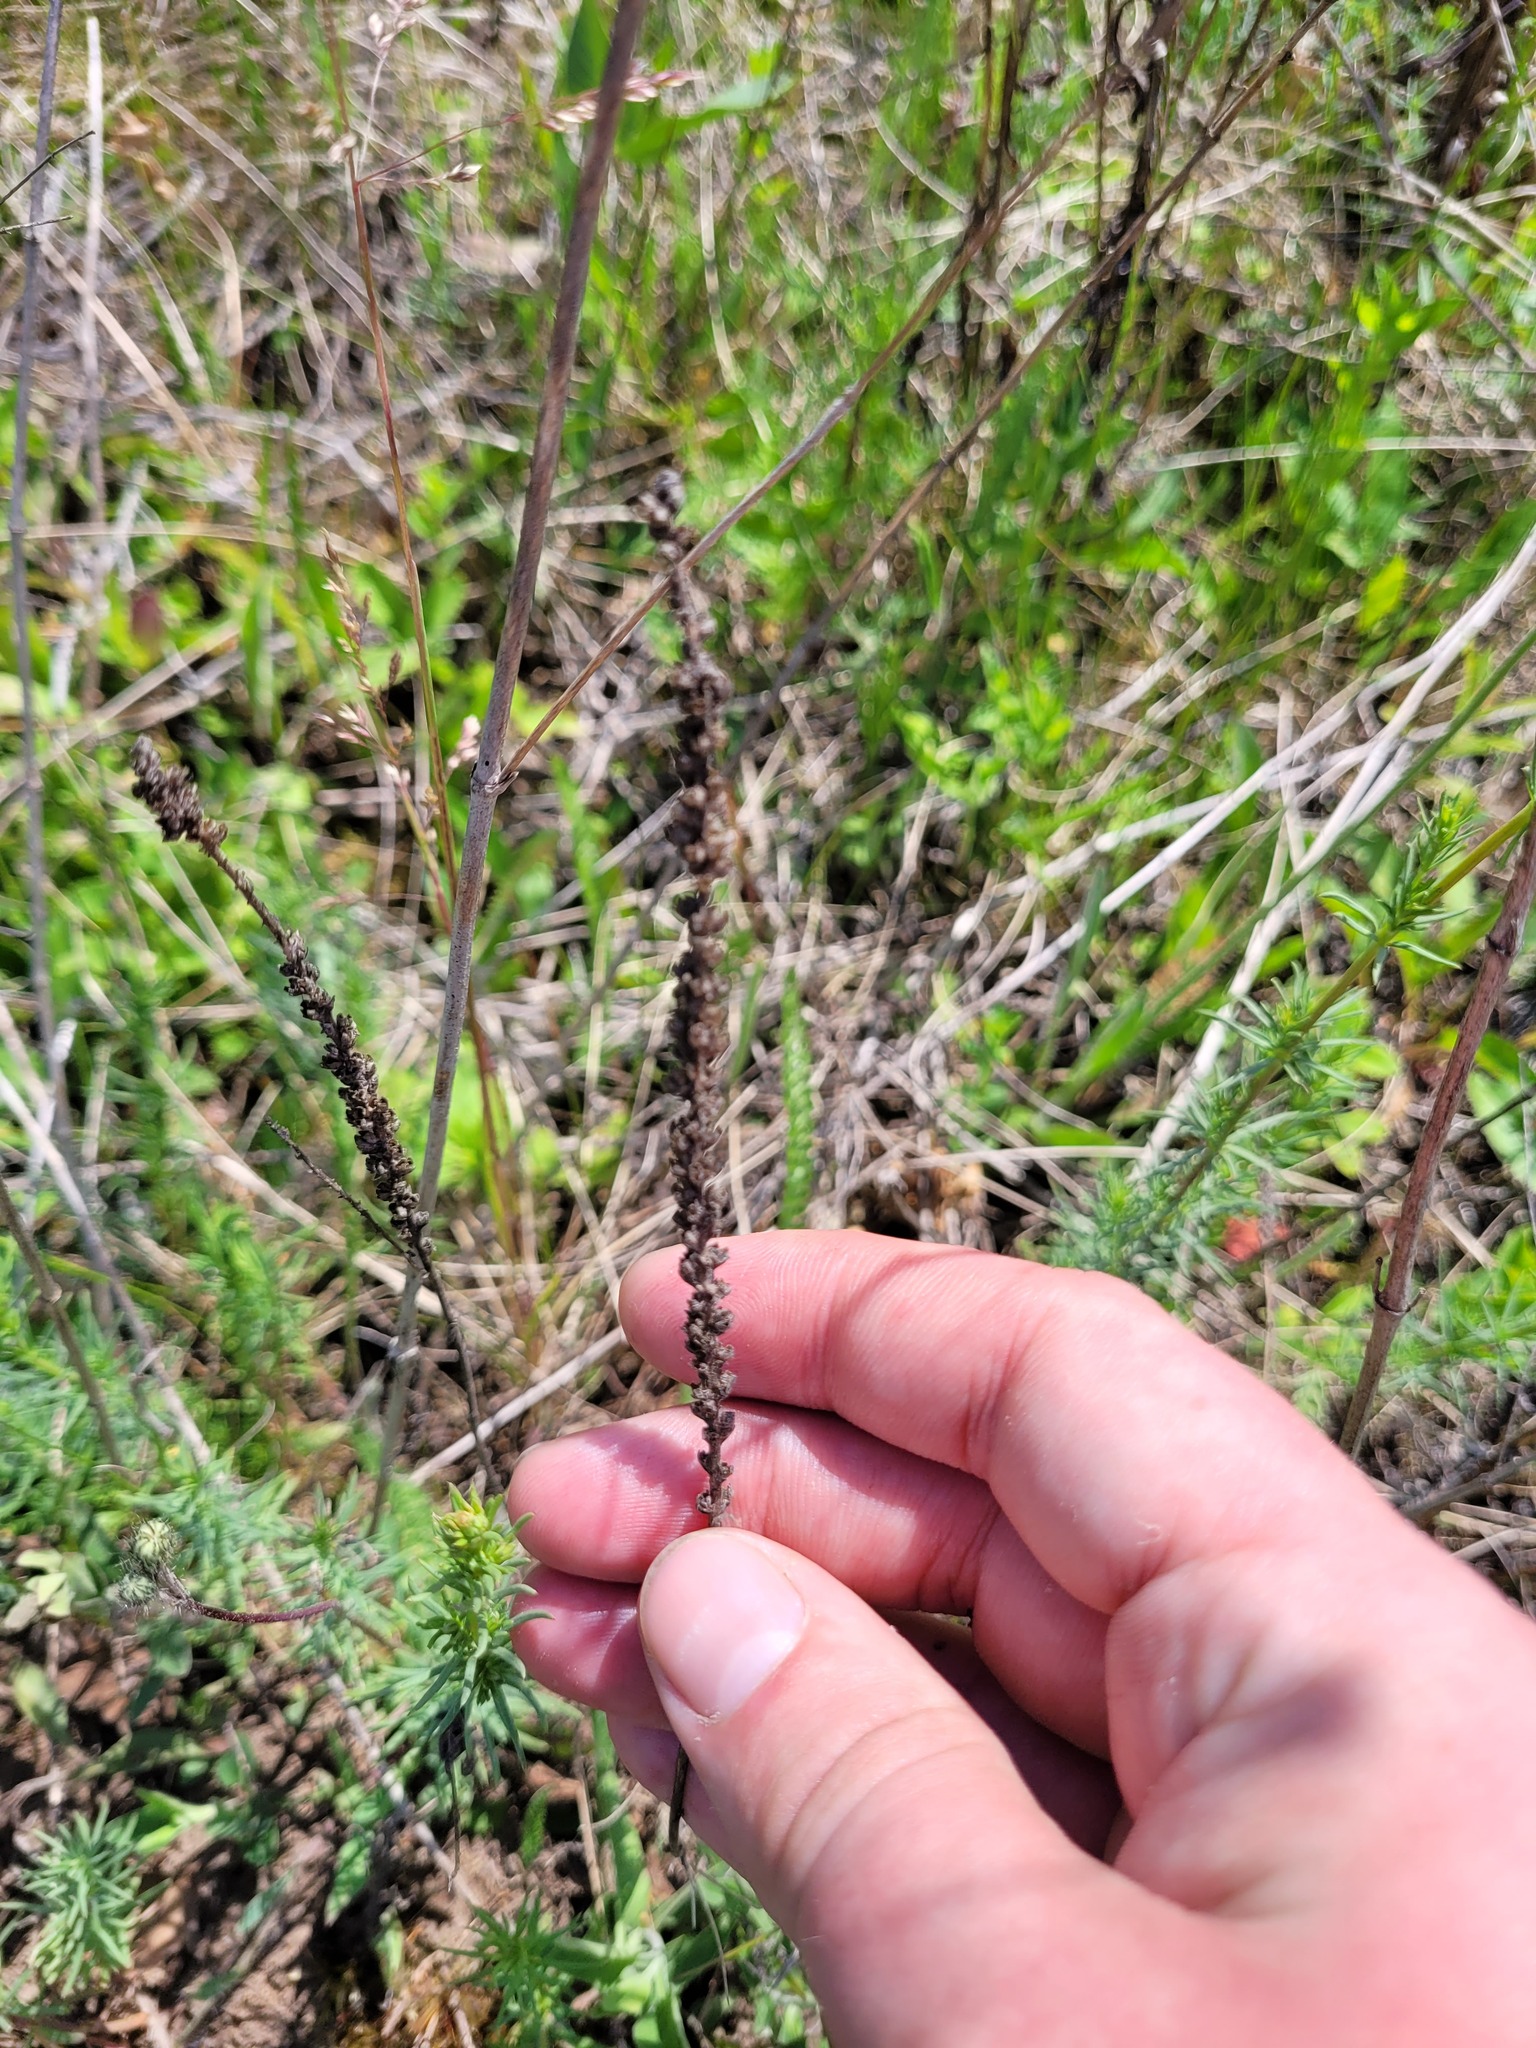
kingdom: Plantae
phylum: Tracheophyta
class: Magnoliopsida
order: Lamiales
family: Plantaginaceae
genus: Veronica
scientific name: Veronica spicata
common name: Spiked speedwell
